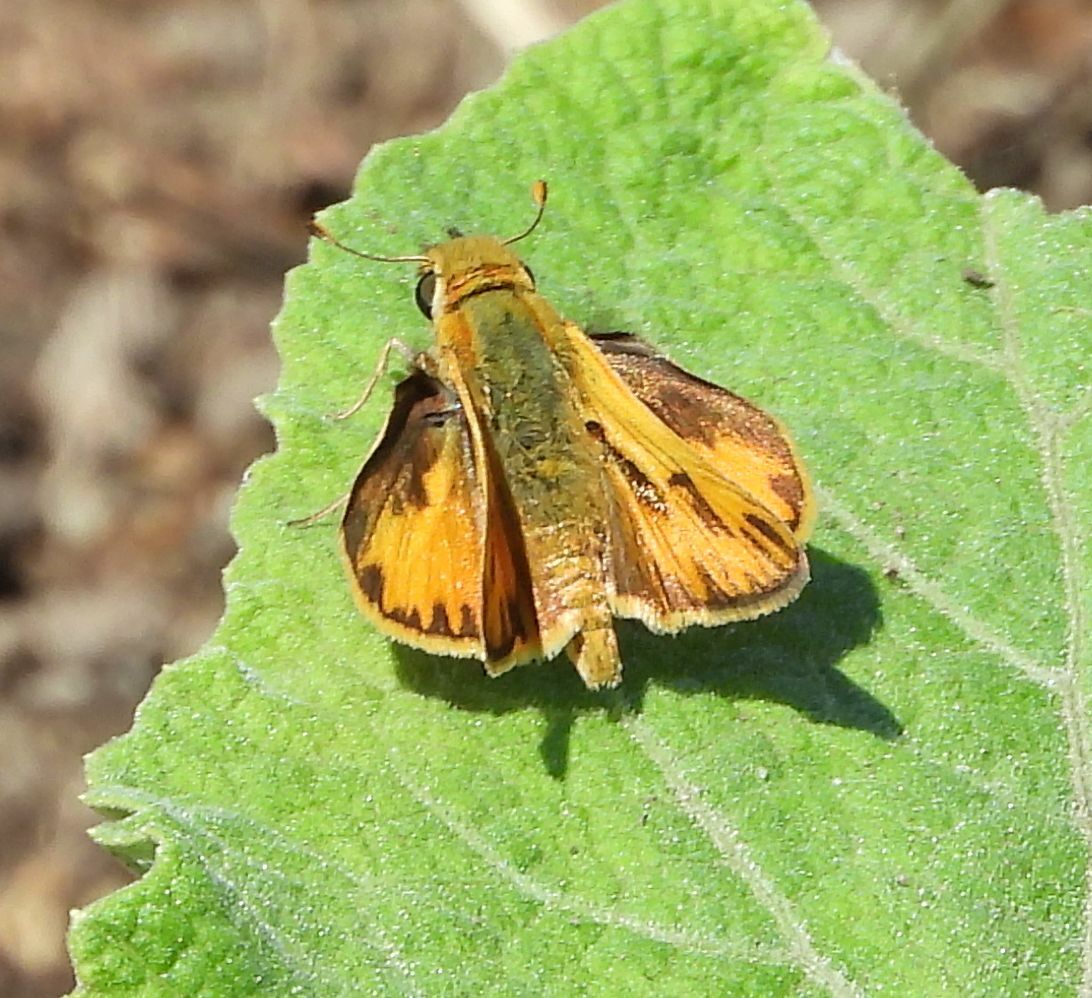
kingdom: Animalia
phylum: Arthropoda
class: Insecta
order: Lepidoptera
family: Hesperiidae
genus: Hylephila
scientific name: Hylephila phyleus
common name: Fiery skipper
